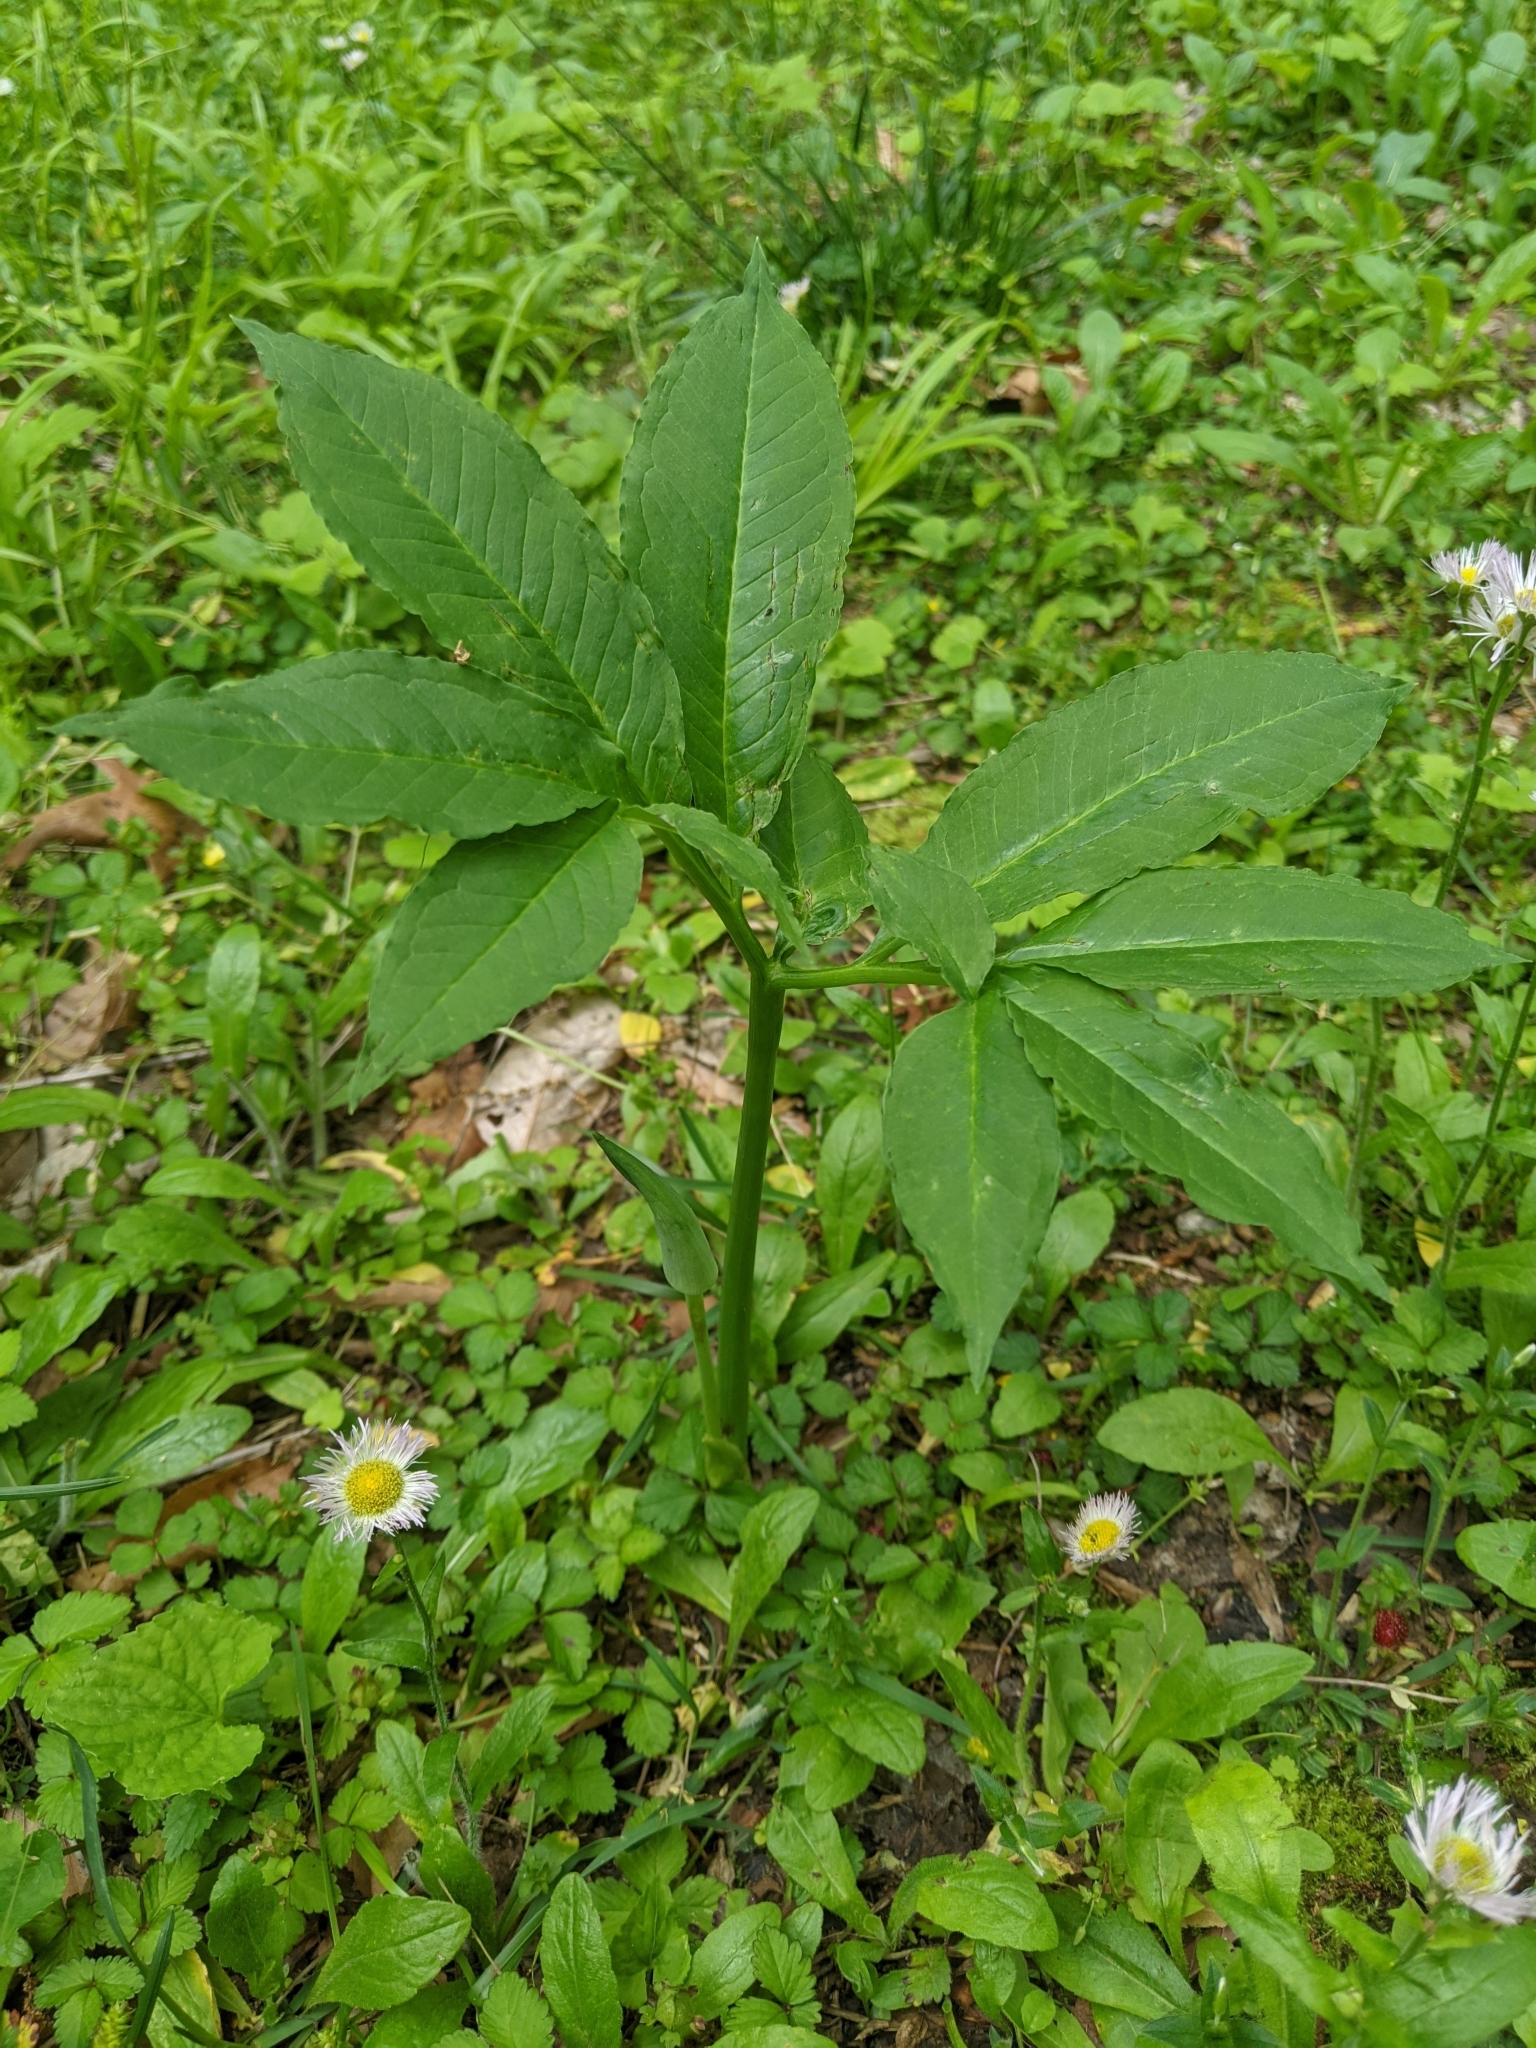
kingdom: Plantae
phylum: Tracheophyta
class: Liliopsida
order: Alismatales
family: Araceae
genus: Arisaema
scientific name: Arisaema dracontium
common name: Dragon-arum
